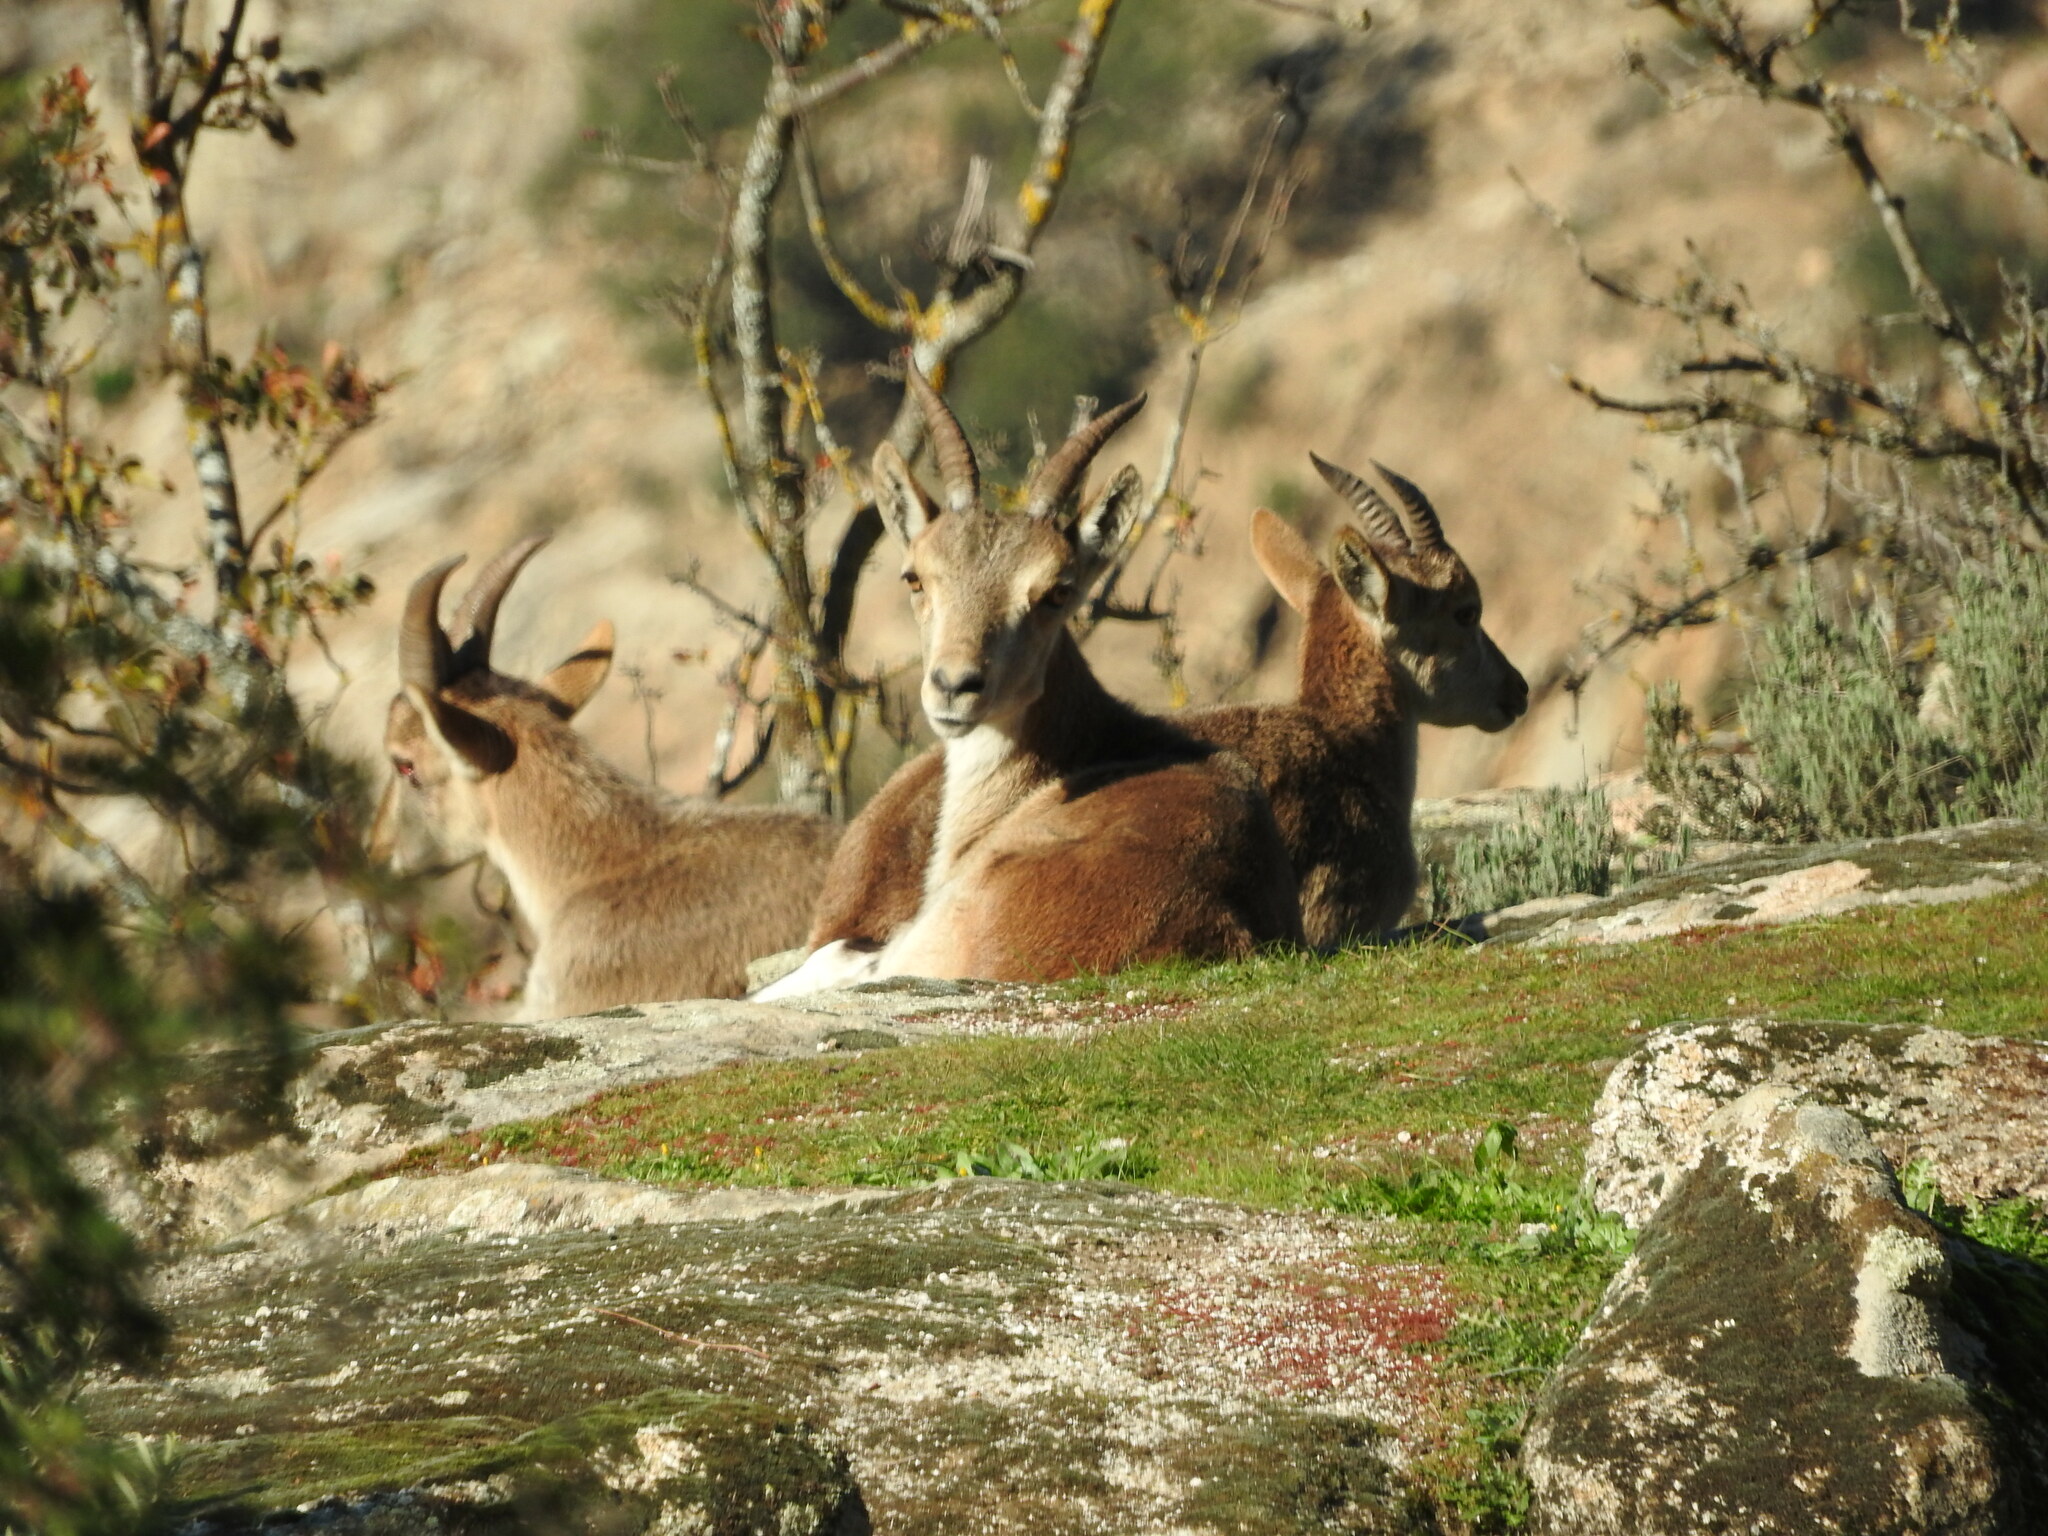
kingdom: Animalia
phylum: Chordata
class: Mammalia
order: Artiodactyla
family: Bovidae
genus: Capra
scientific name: Capra pyrenaica
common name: Spanish ibex
